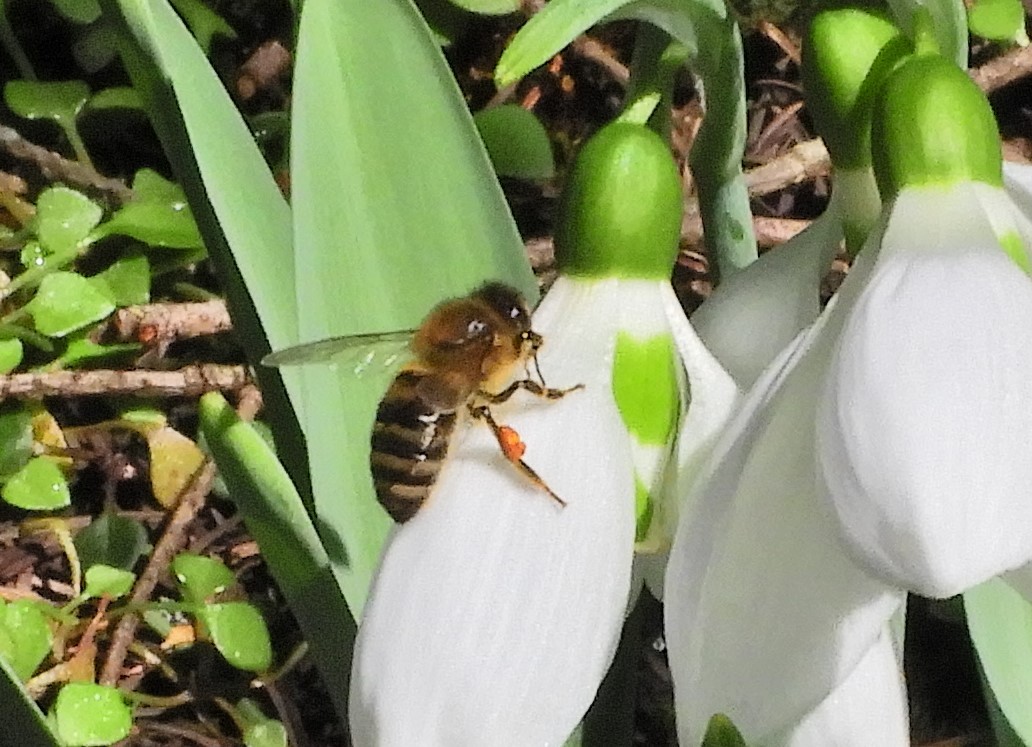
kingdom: Animalia
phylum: Arthropoda
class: Insecta
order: Hymenoptera
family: Apidae
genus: Apis
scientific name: Apis mellifera
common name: Honey bee
